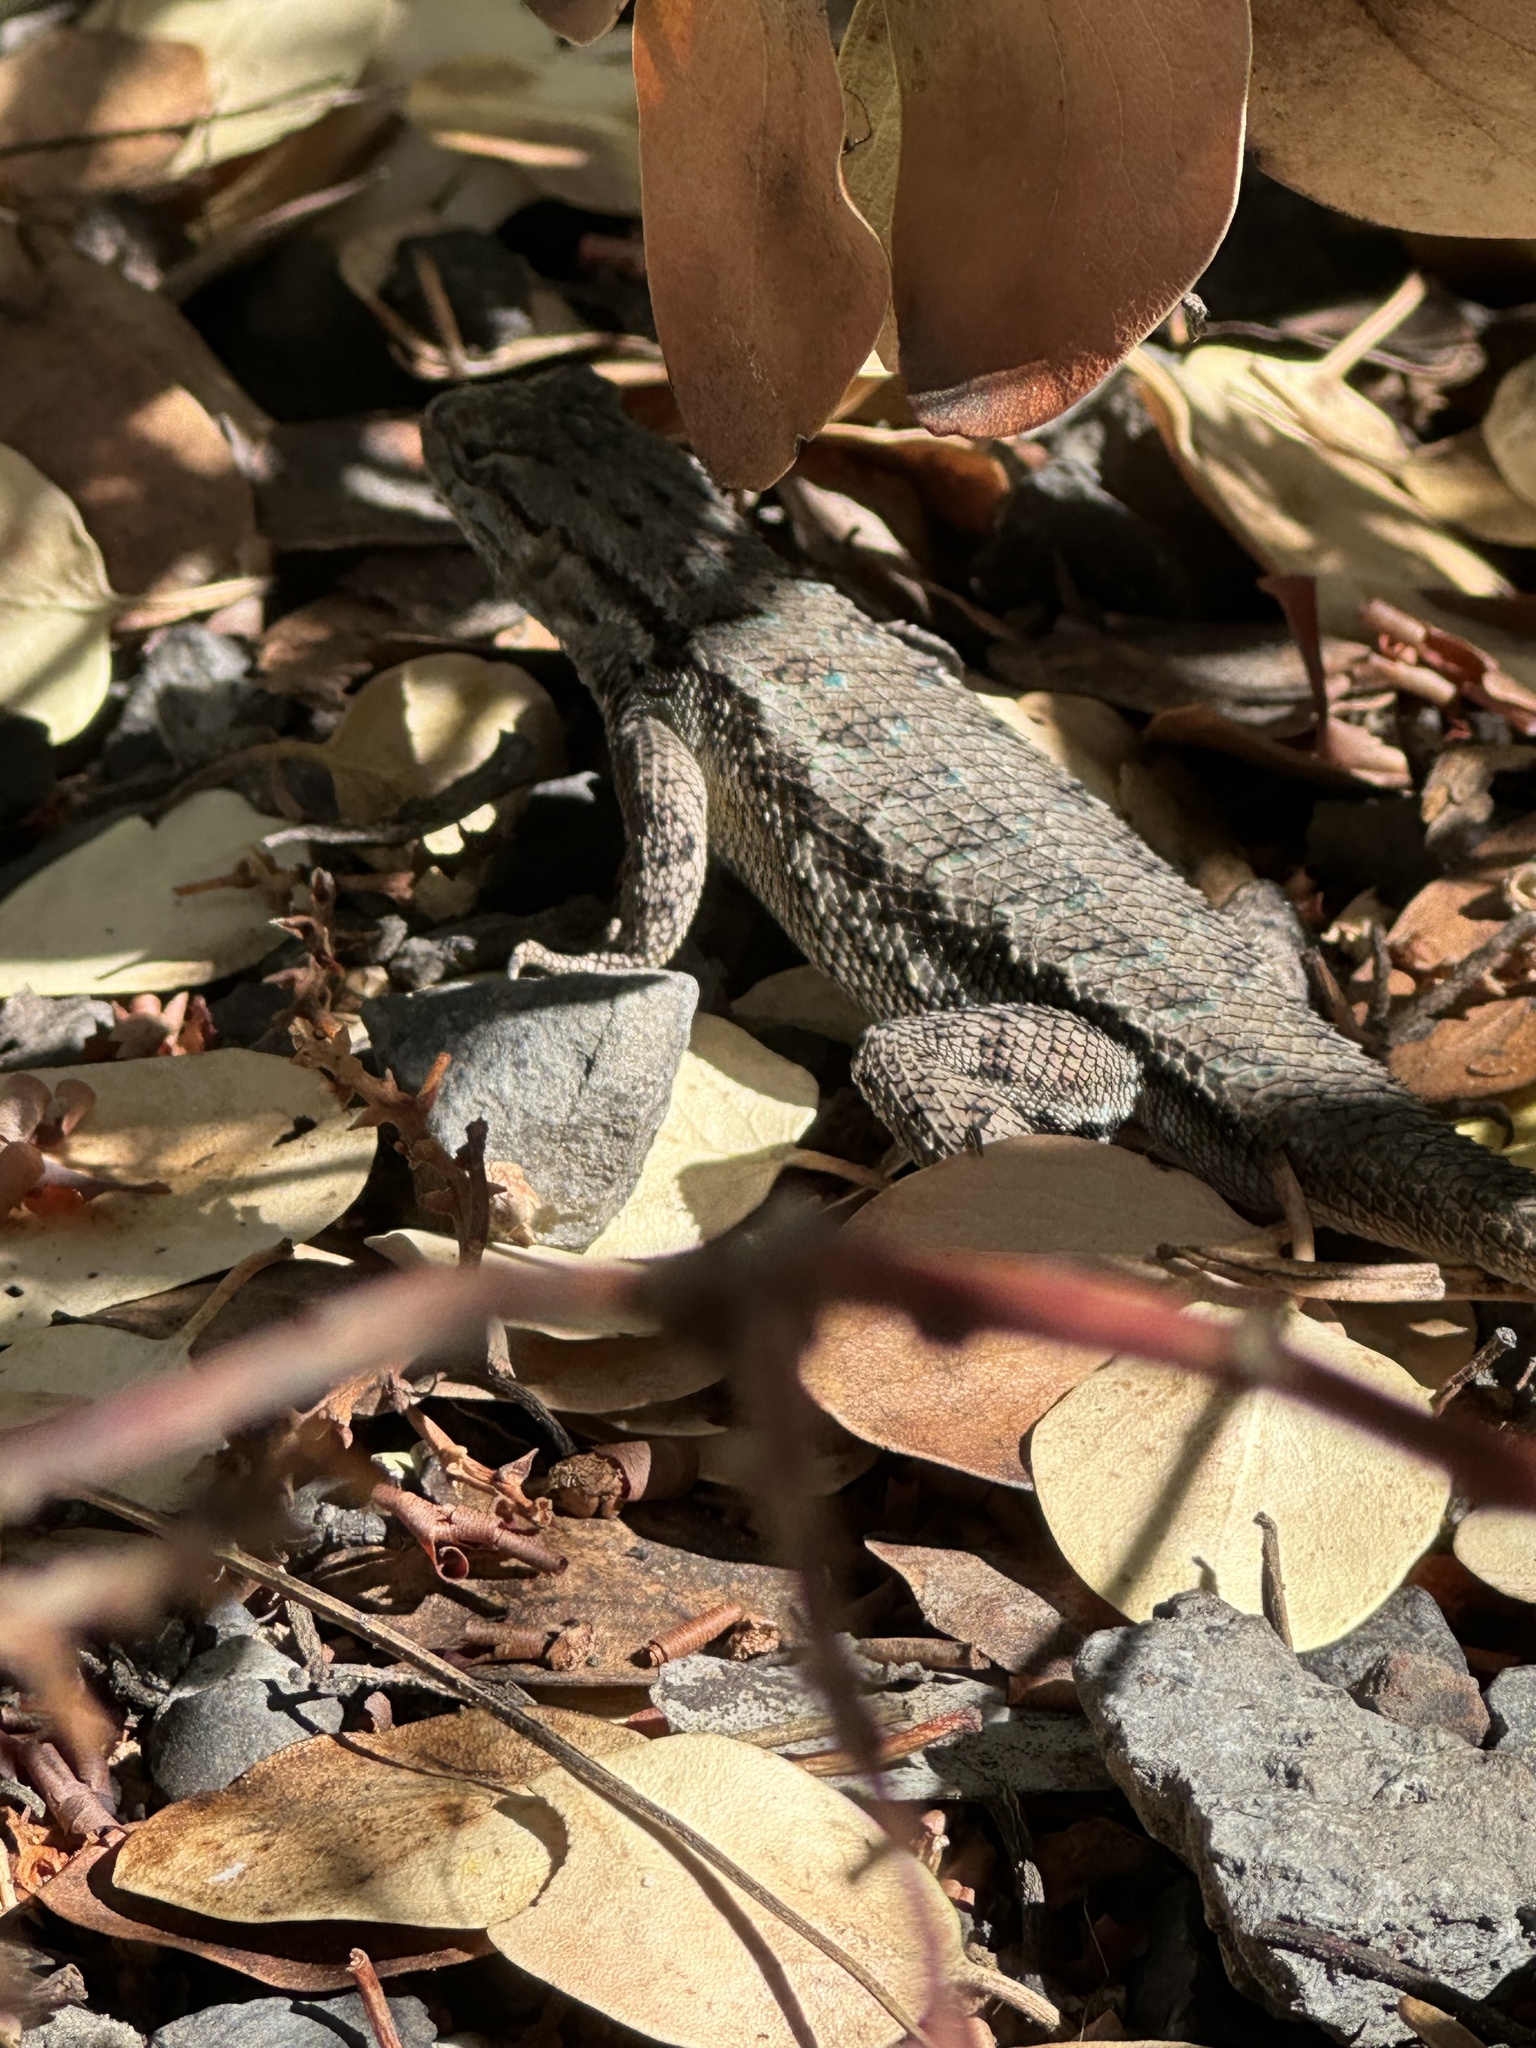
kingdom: Animalia
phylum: Chordata
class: Squamata
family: Phrynosomatidae
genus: Sceloporus
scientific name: Sceloporus occidentalis
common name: Western fence lizard
